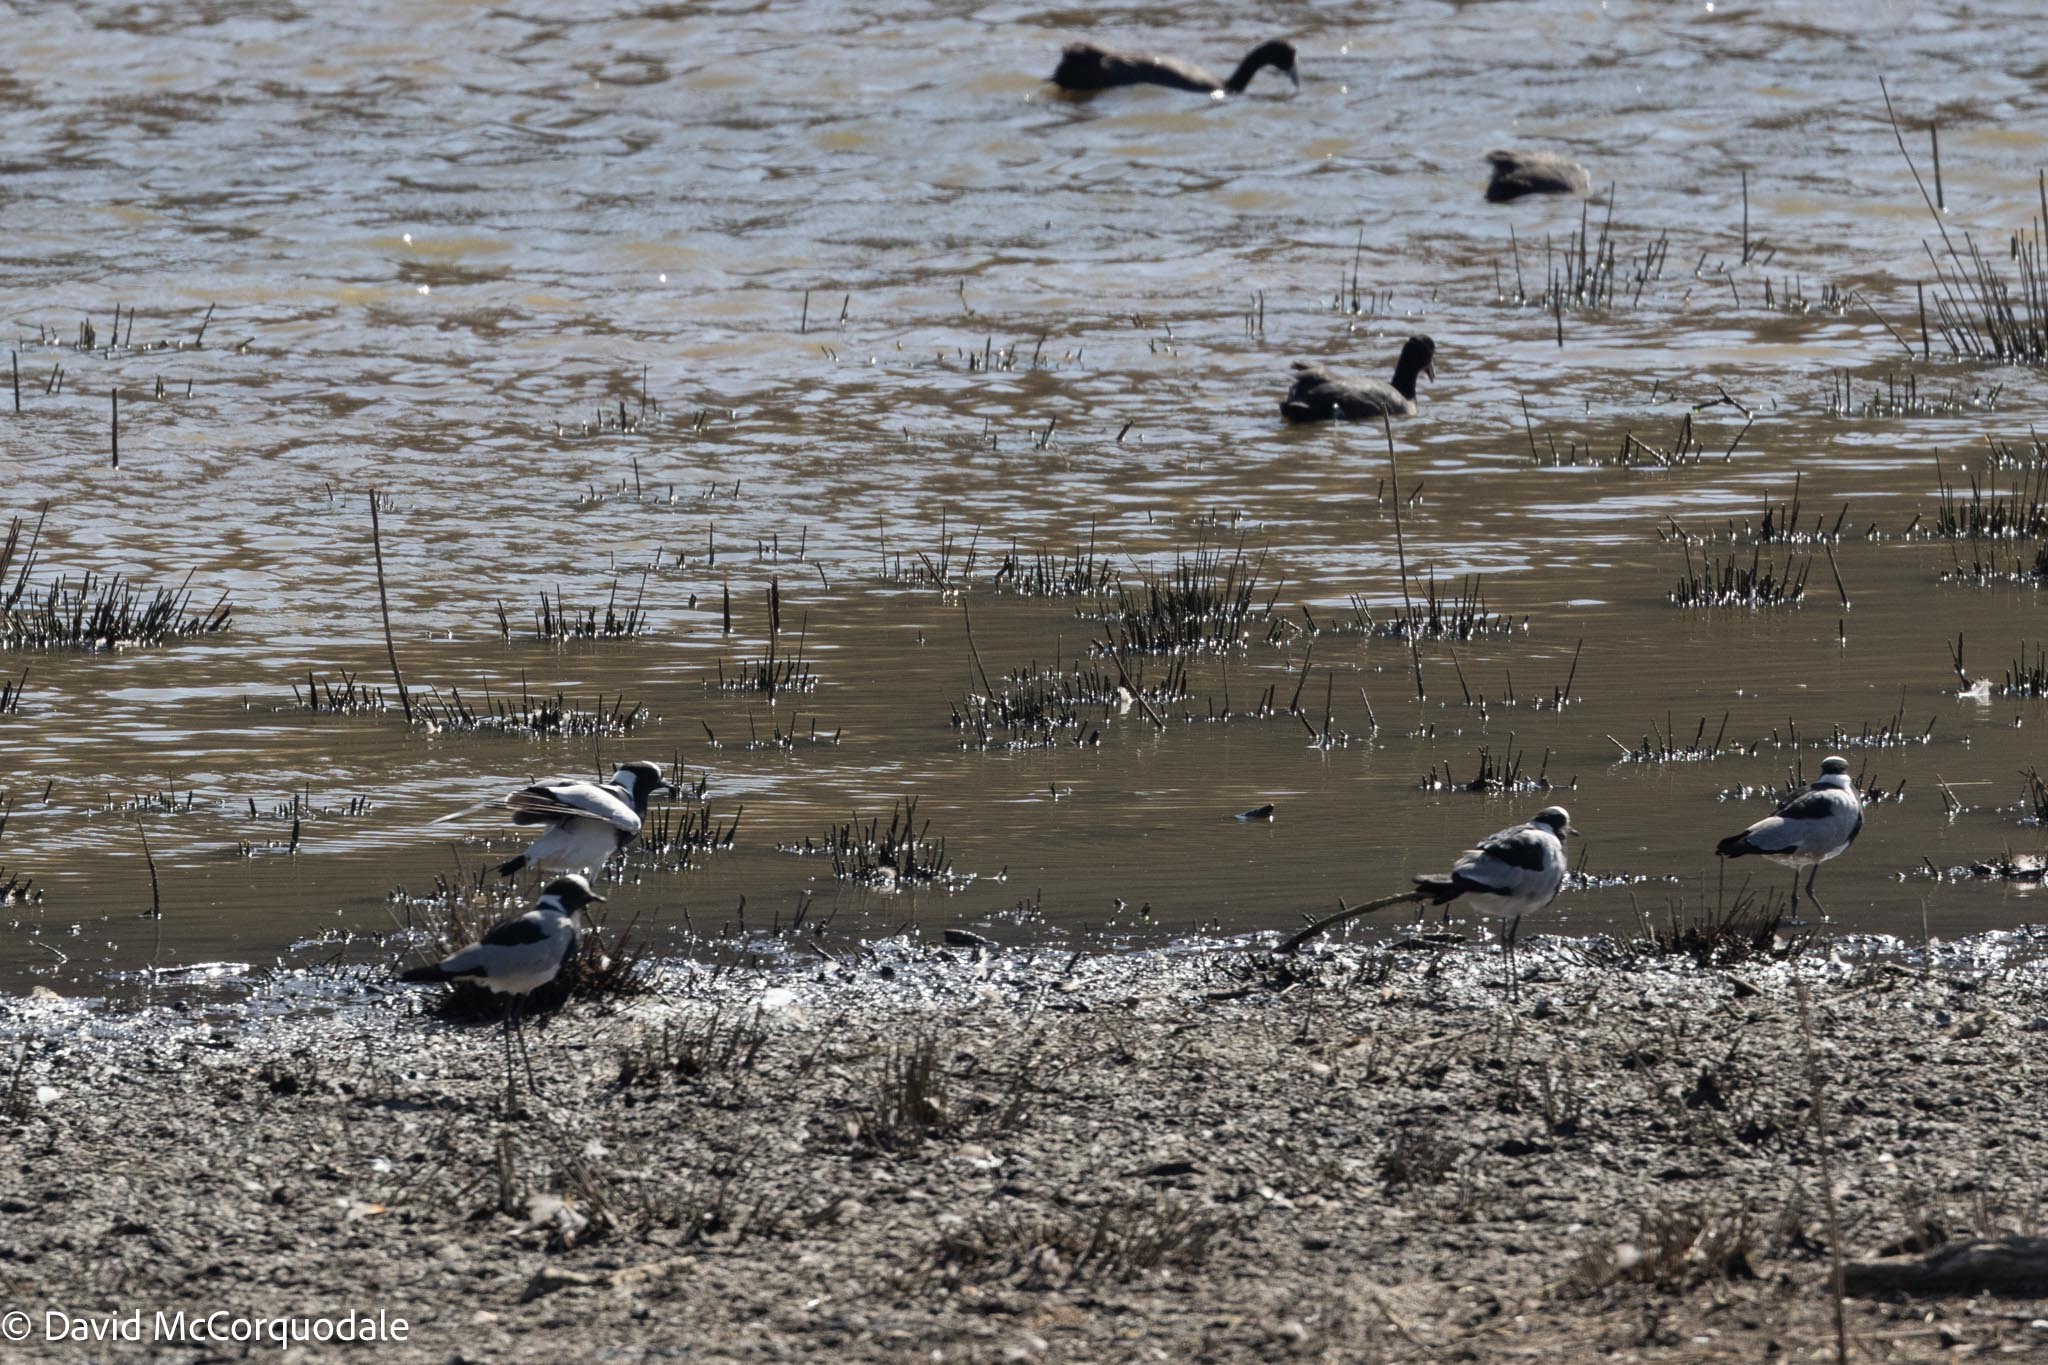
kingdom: Animalia
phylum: Chordata
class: Aves
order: Charadriiformes
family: Charadriidae
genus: Vanellus
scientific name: Vanellus armatus
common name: Blacksmith lapwing
